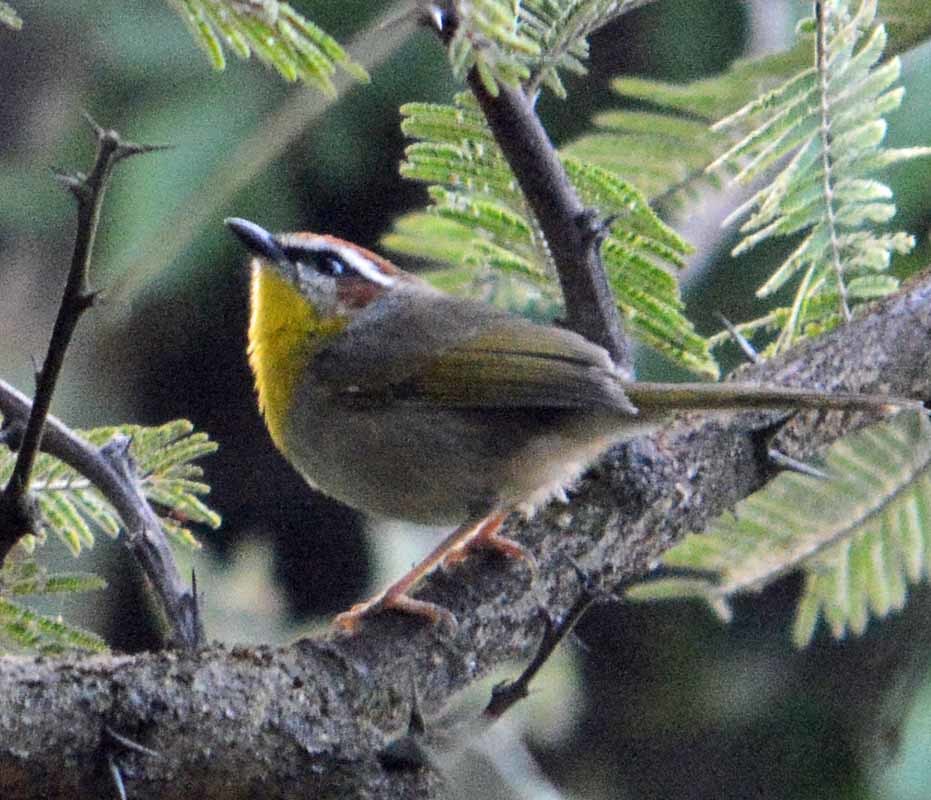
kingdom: Animalia
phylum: Chordata
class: Aves
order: Passeriformes
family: Parulidae
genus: Basileuterus
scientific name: Basileuterus rufifrons
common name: Rufous-capped warbler
